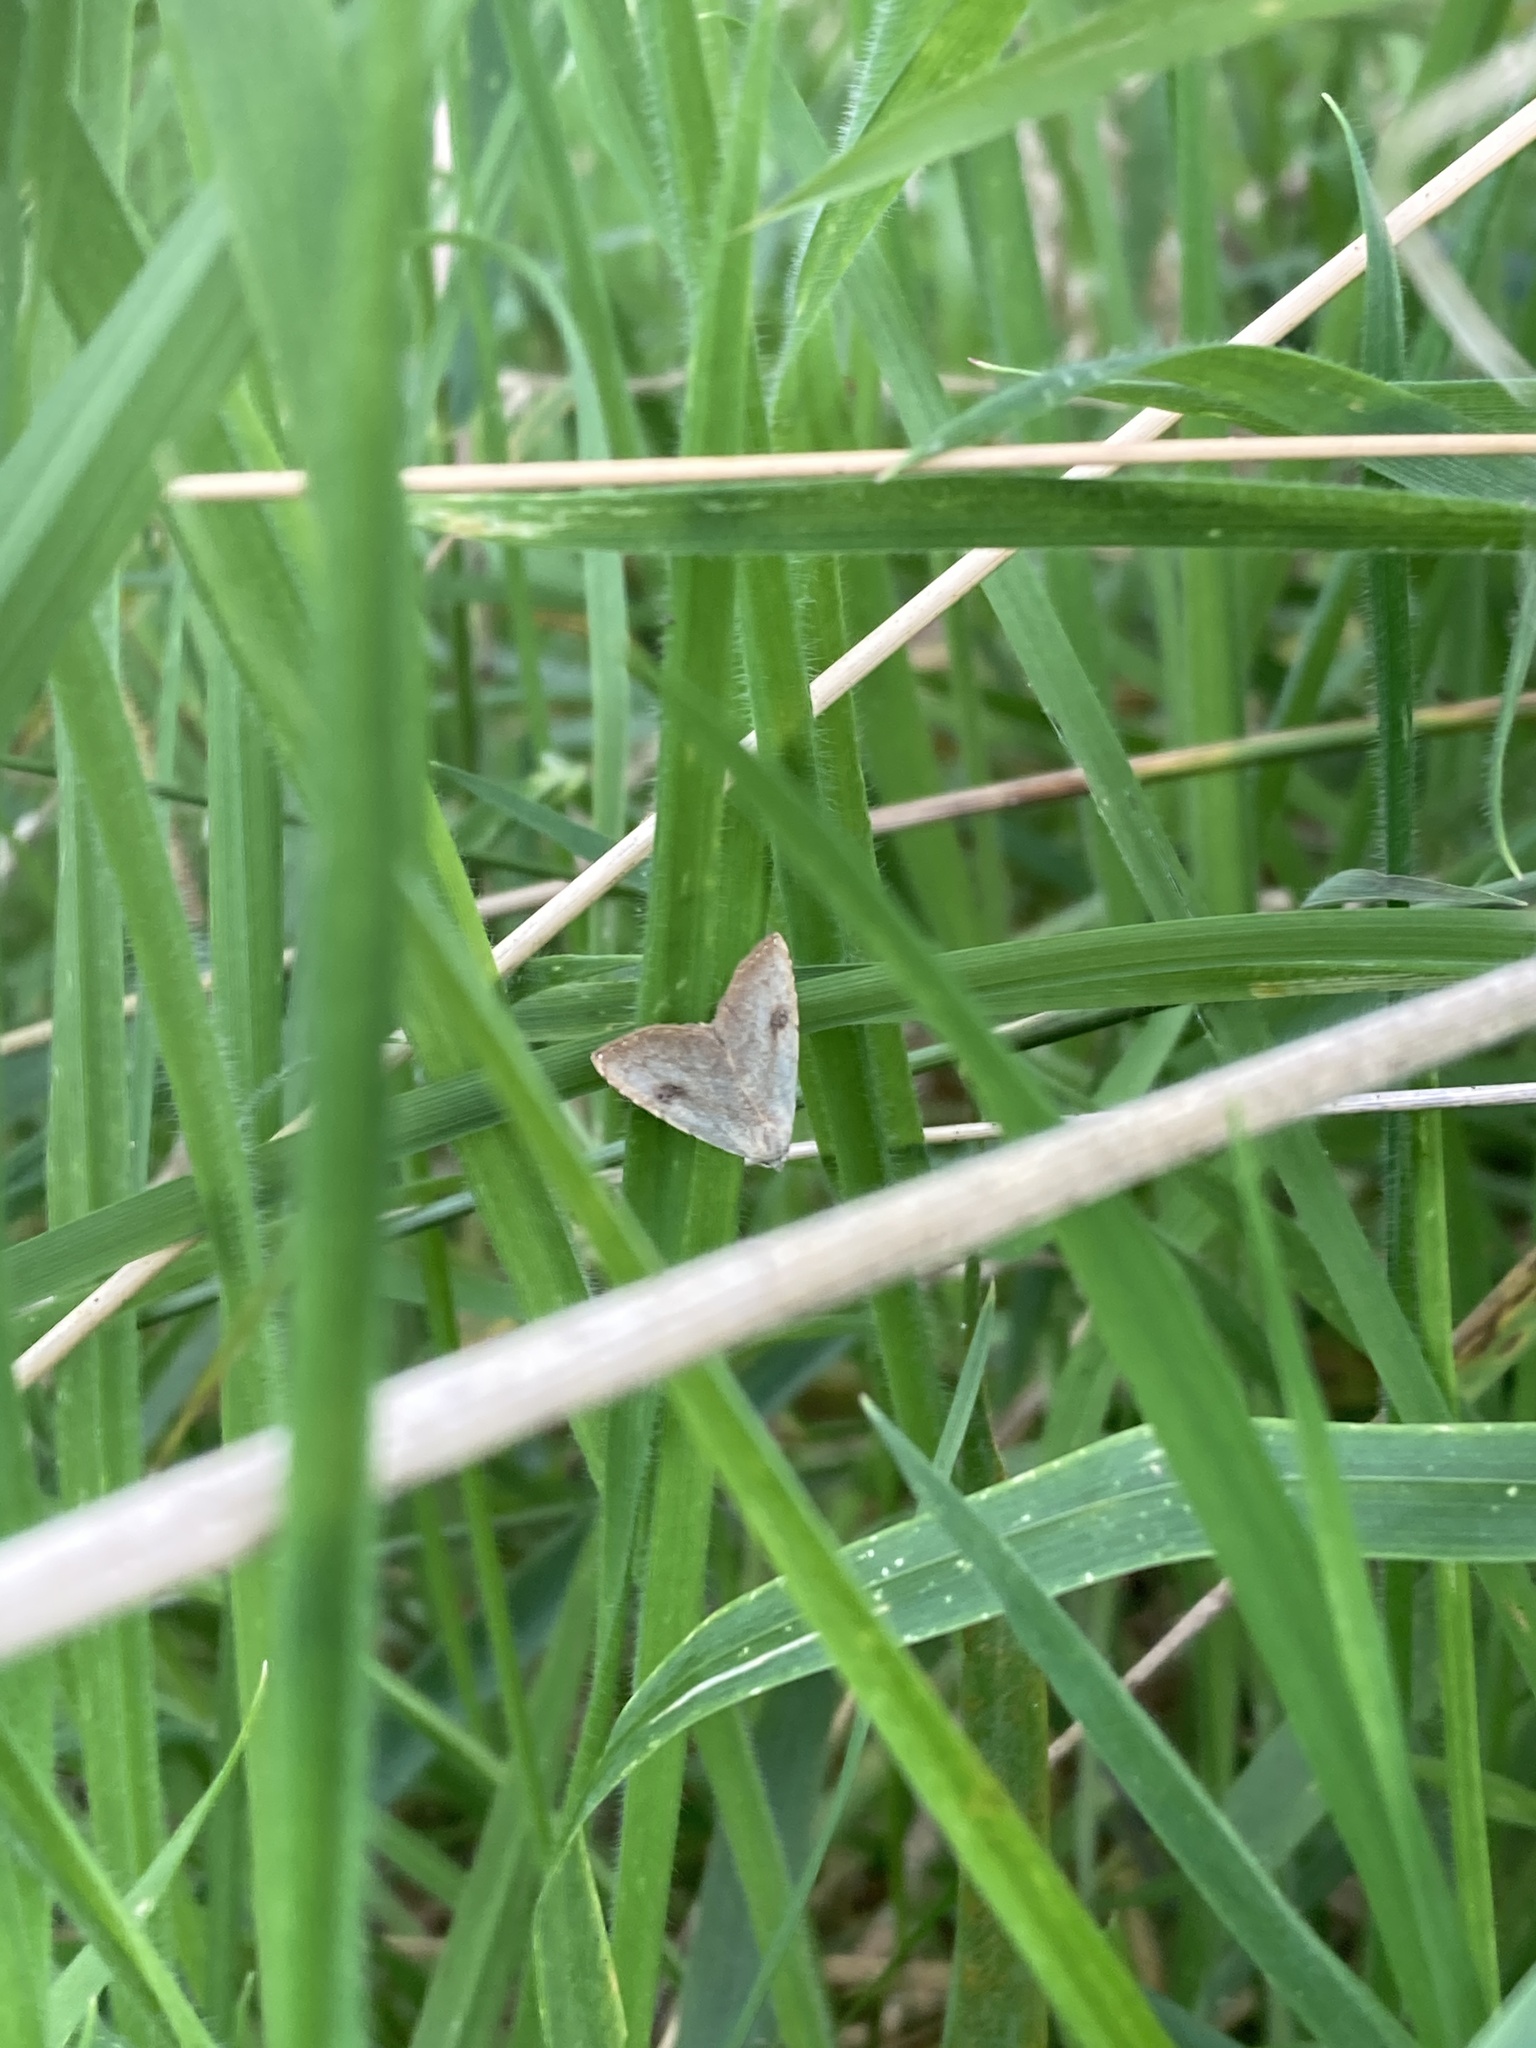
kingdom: Animalia
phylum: Arthropoda
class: Insecta
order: Lepidoptera
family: Erebidae
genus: Rivula
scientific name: Rivula sericealis
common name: Straw dot
